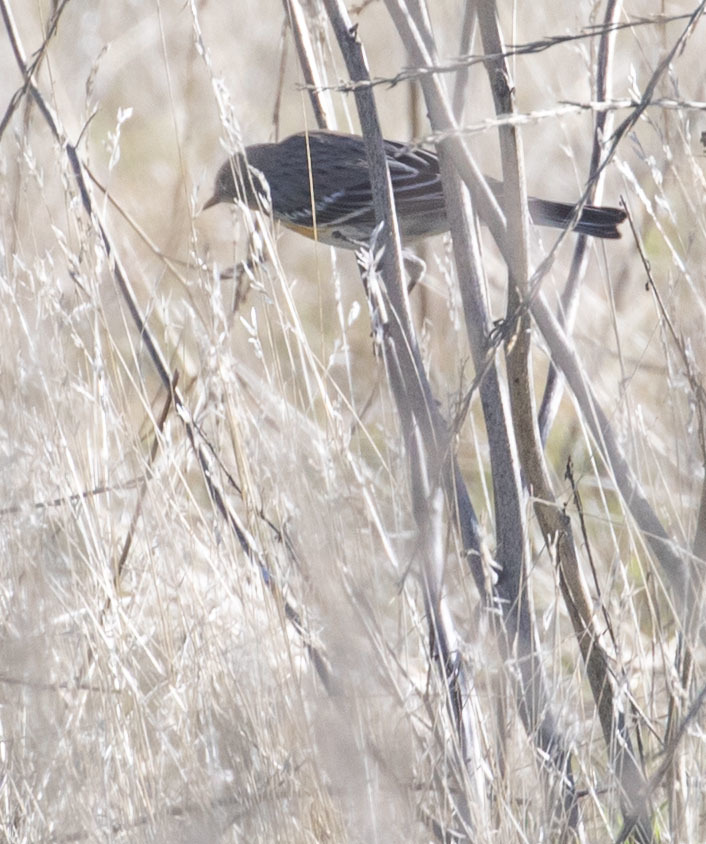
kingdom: Animalia
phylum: Chordata
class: Aves
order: Passeriformes
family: Parulidae
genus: Setophaga
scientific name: Setophaga coronata
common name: Myrtle warbler
